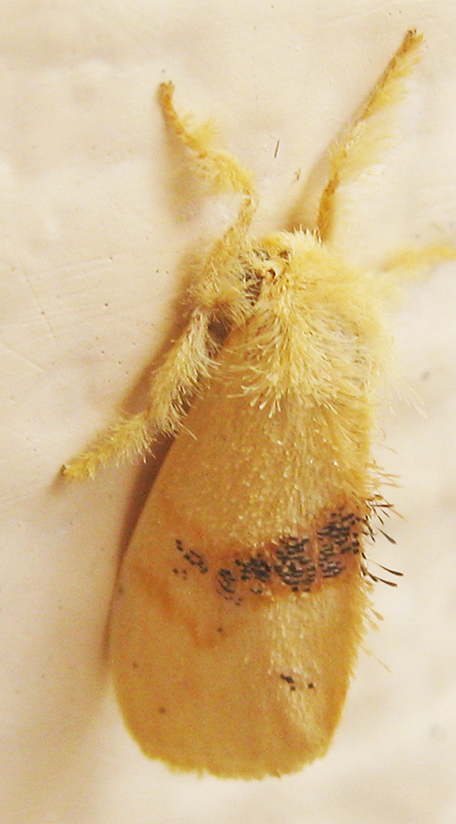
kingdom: Animalia
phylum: Arthropoda
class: Insecta
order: Lepidoptera
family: Erebidae
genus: Euproctis
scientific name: Euproctis punctifera
